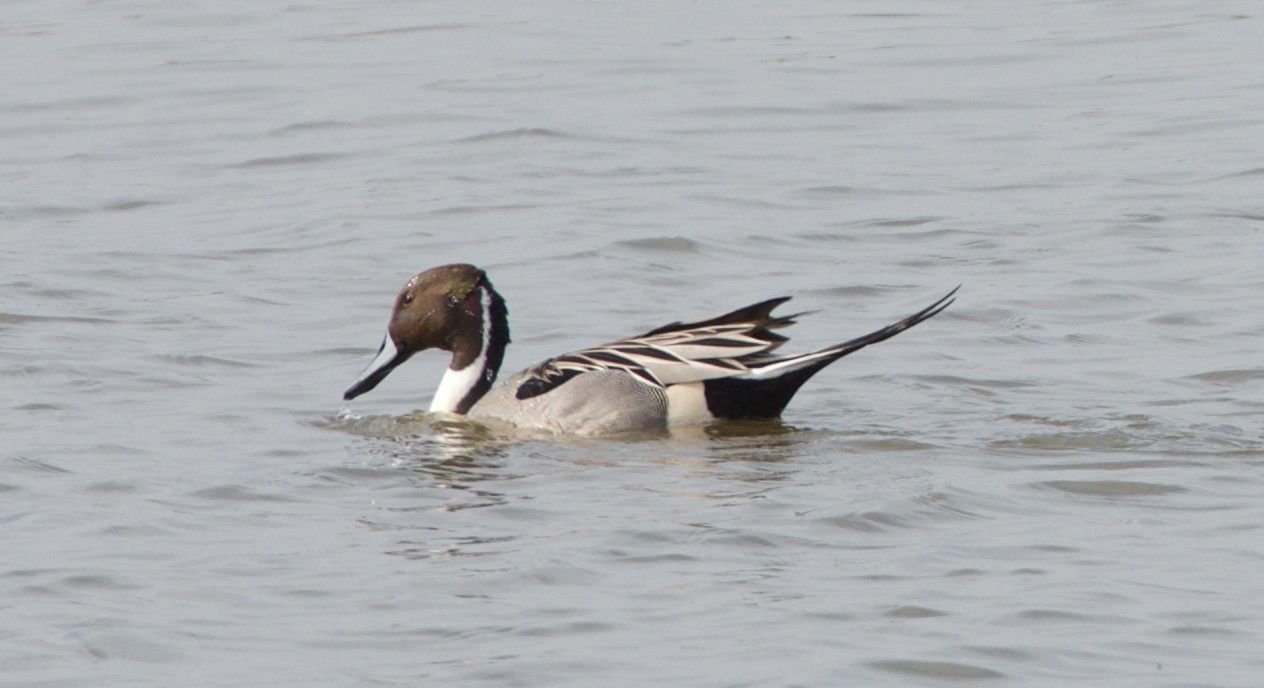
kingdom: Animalia
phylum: Chordata
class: Aves
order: Anseriformes
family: Anatidae
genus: Anas
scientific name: Anas acuta
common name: Northern pintail
